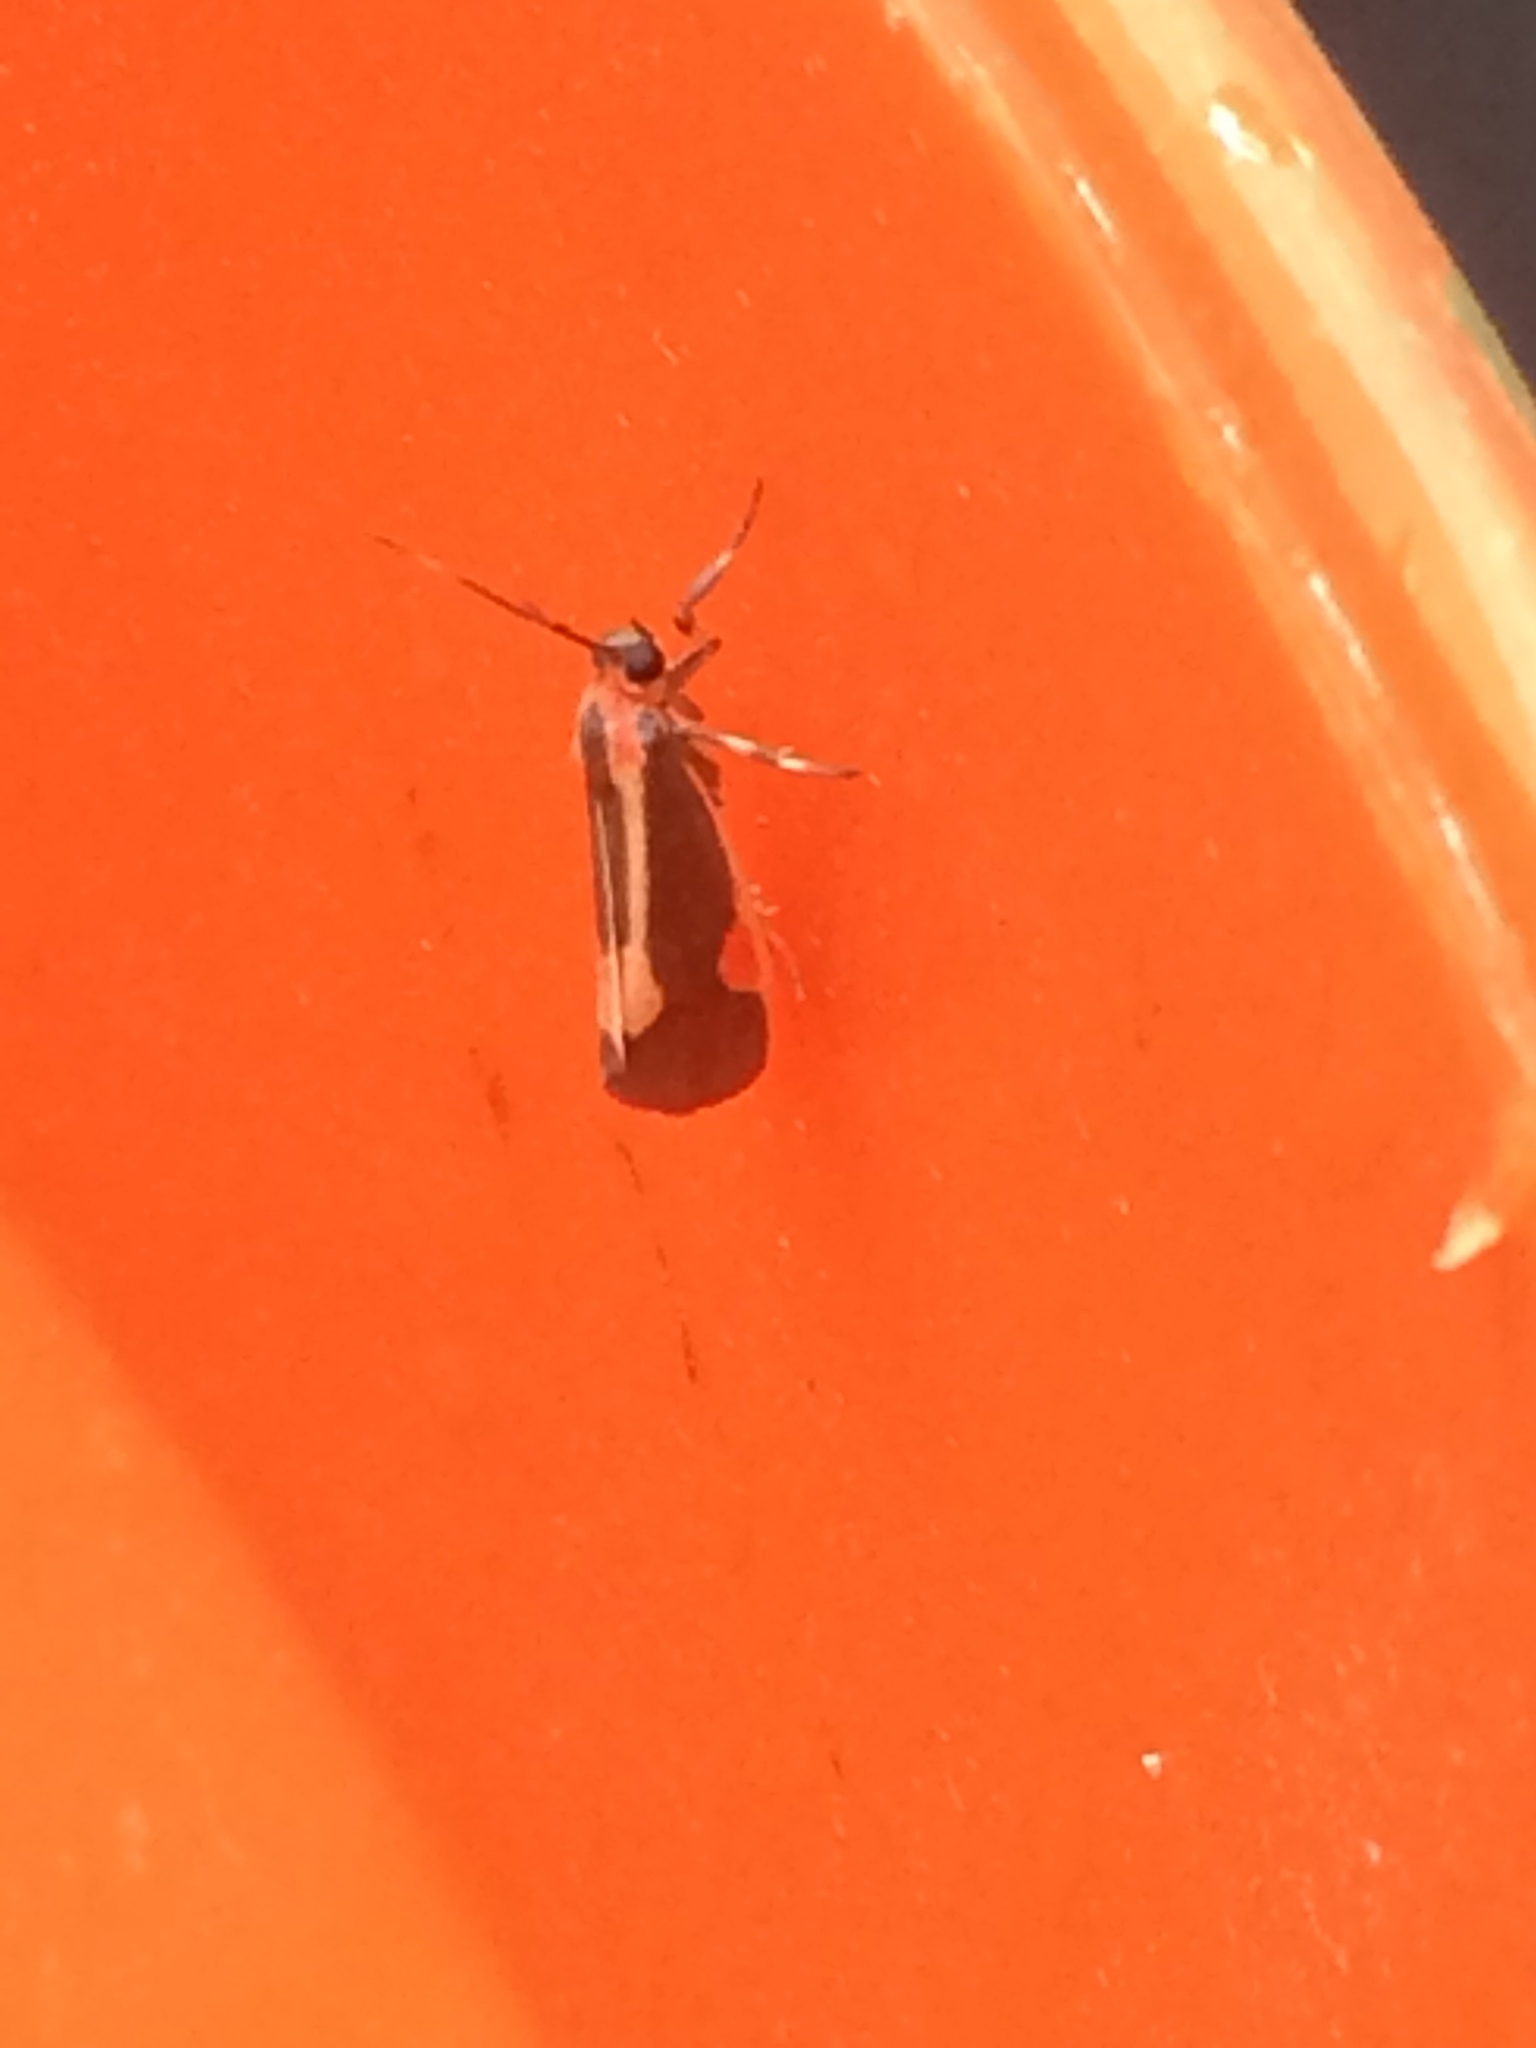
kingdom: Animalia
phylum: Arthropoda
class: Insecta
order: Lepidoptera
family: Erebidae
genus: Cisthene
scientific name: Cisthene packardii
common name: Packard's lichen moth
